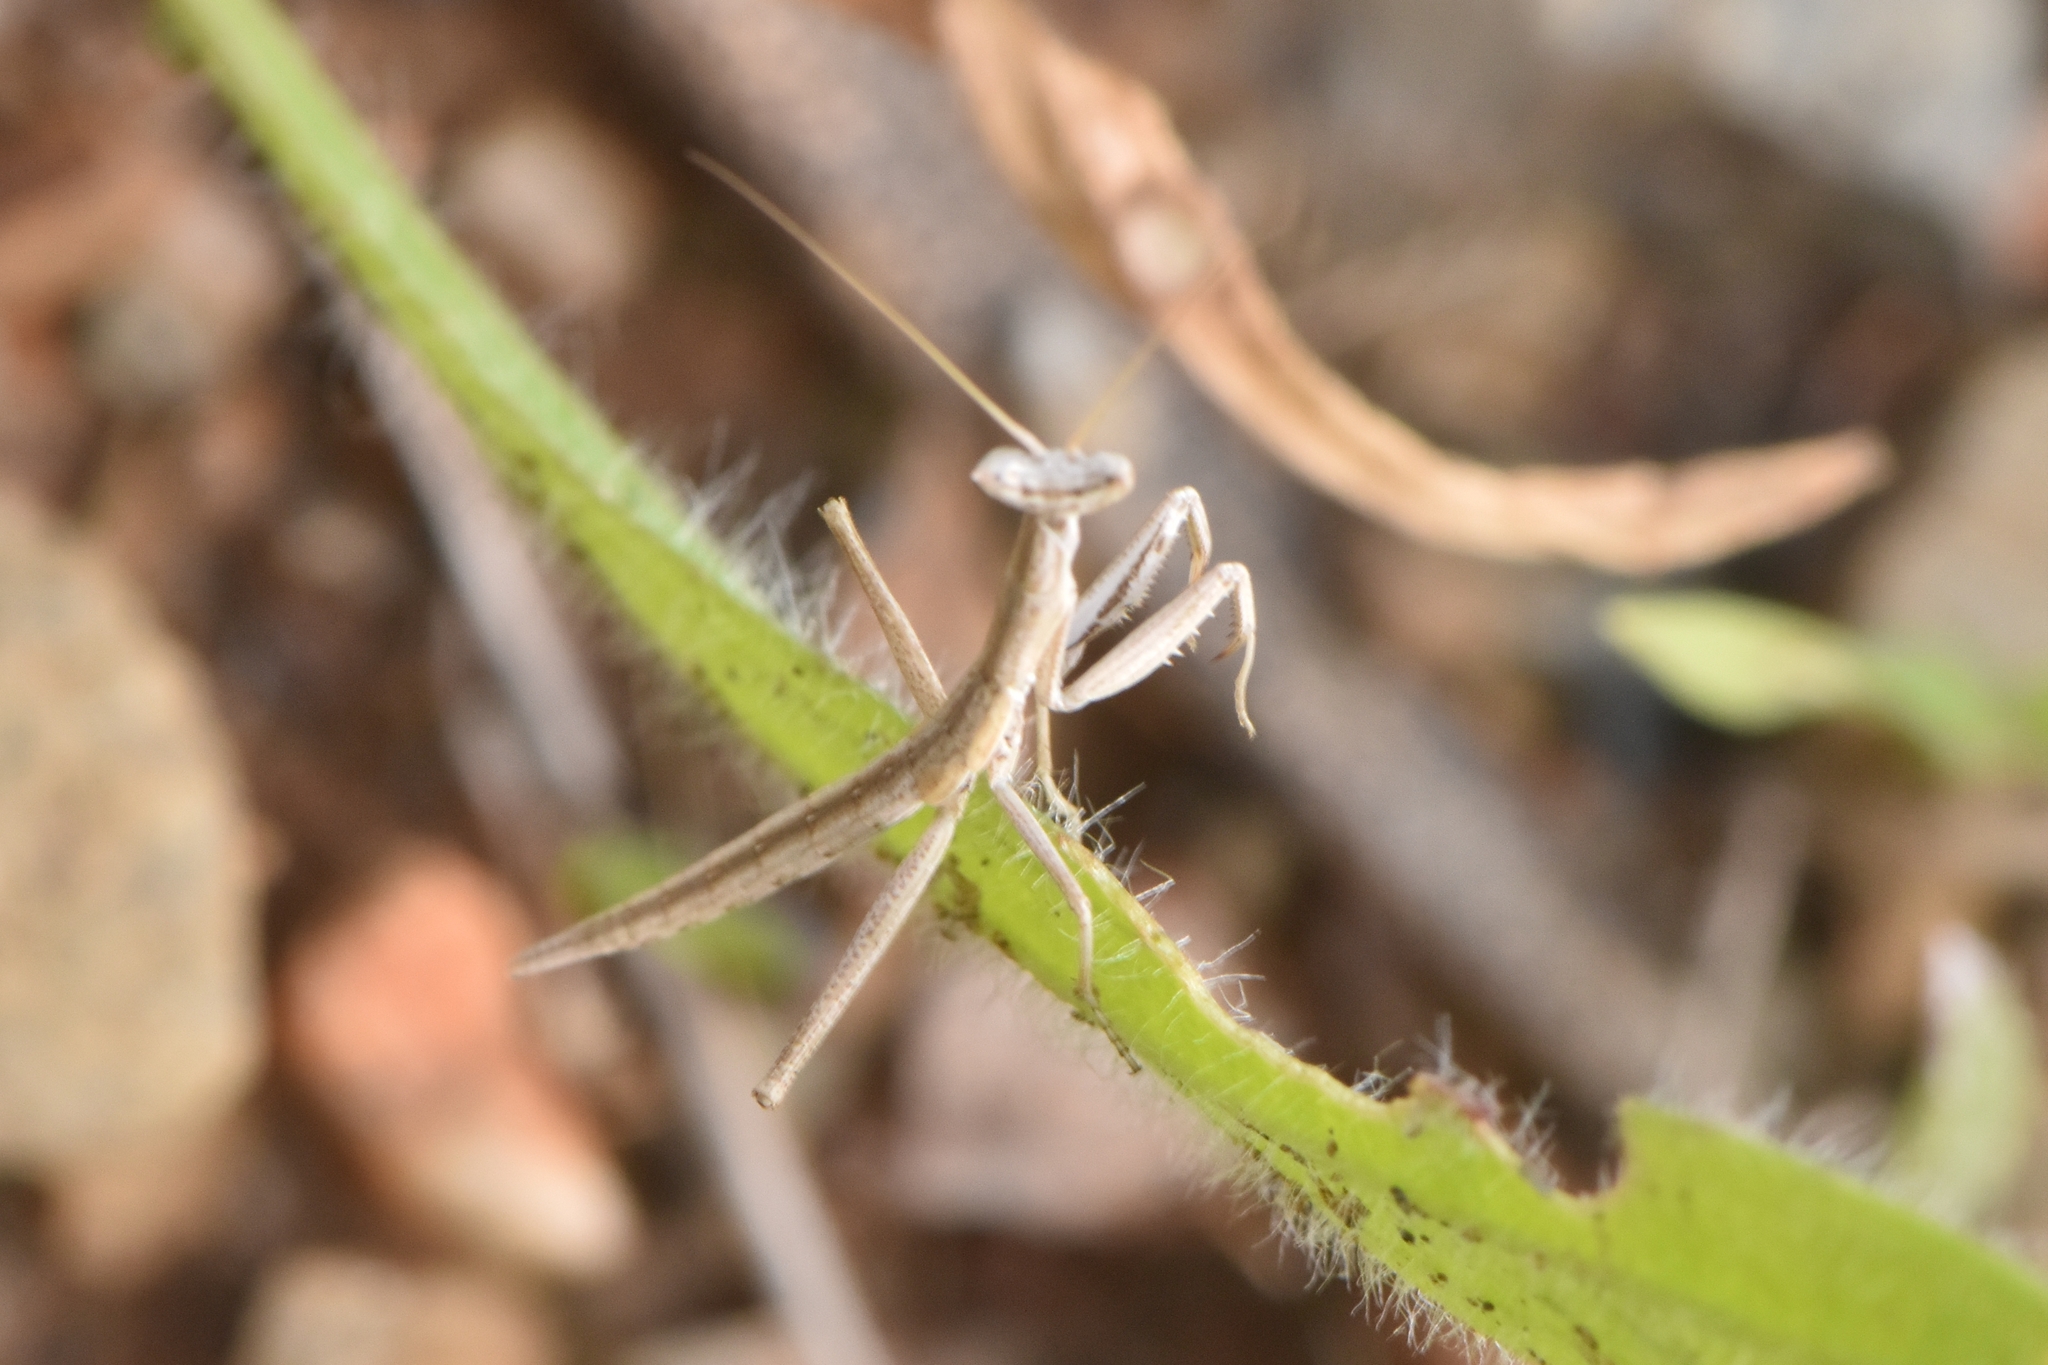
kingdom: Animalia
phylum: Arthropoda
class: Insecta
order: Mantodea
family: Amelidae
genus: Ameles
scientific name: Ameles picteti
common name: Pictet's dwarf mantis
